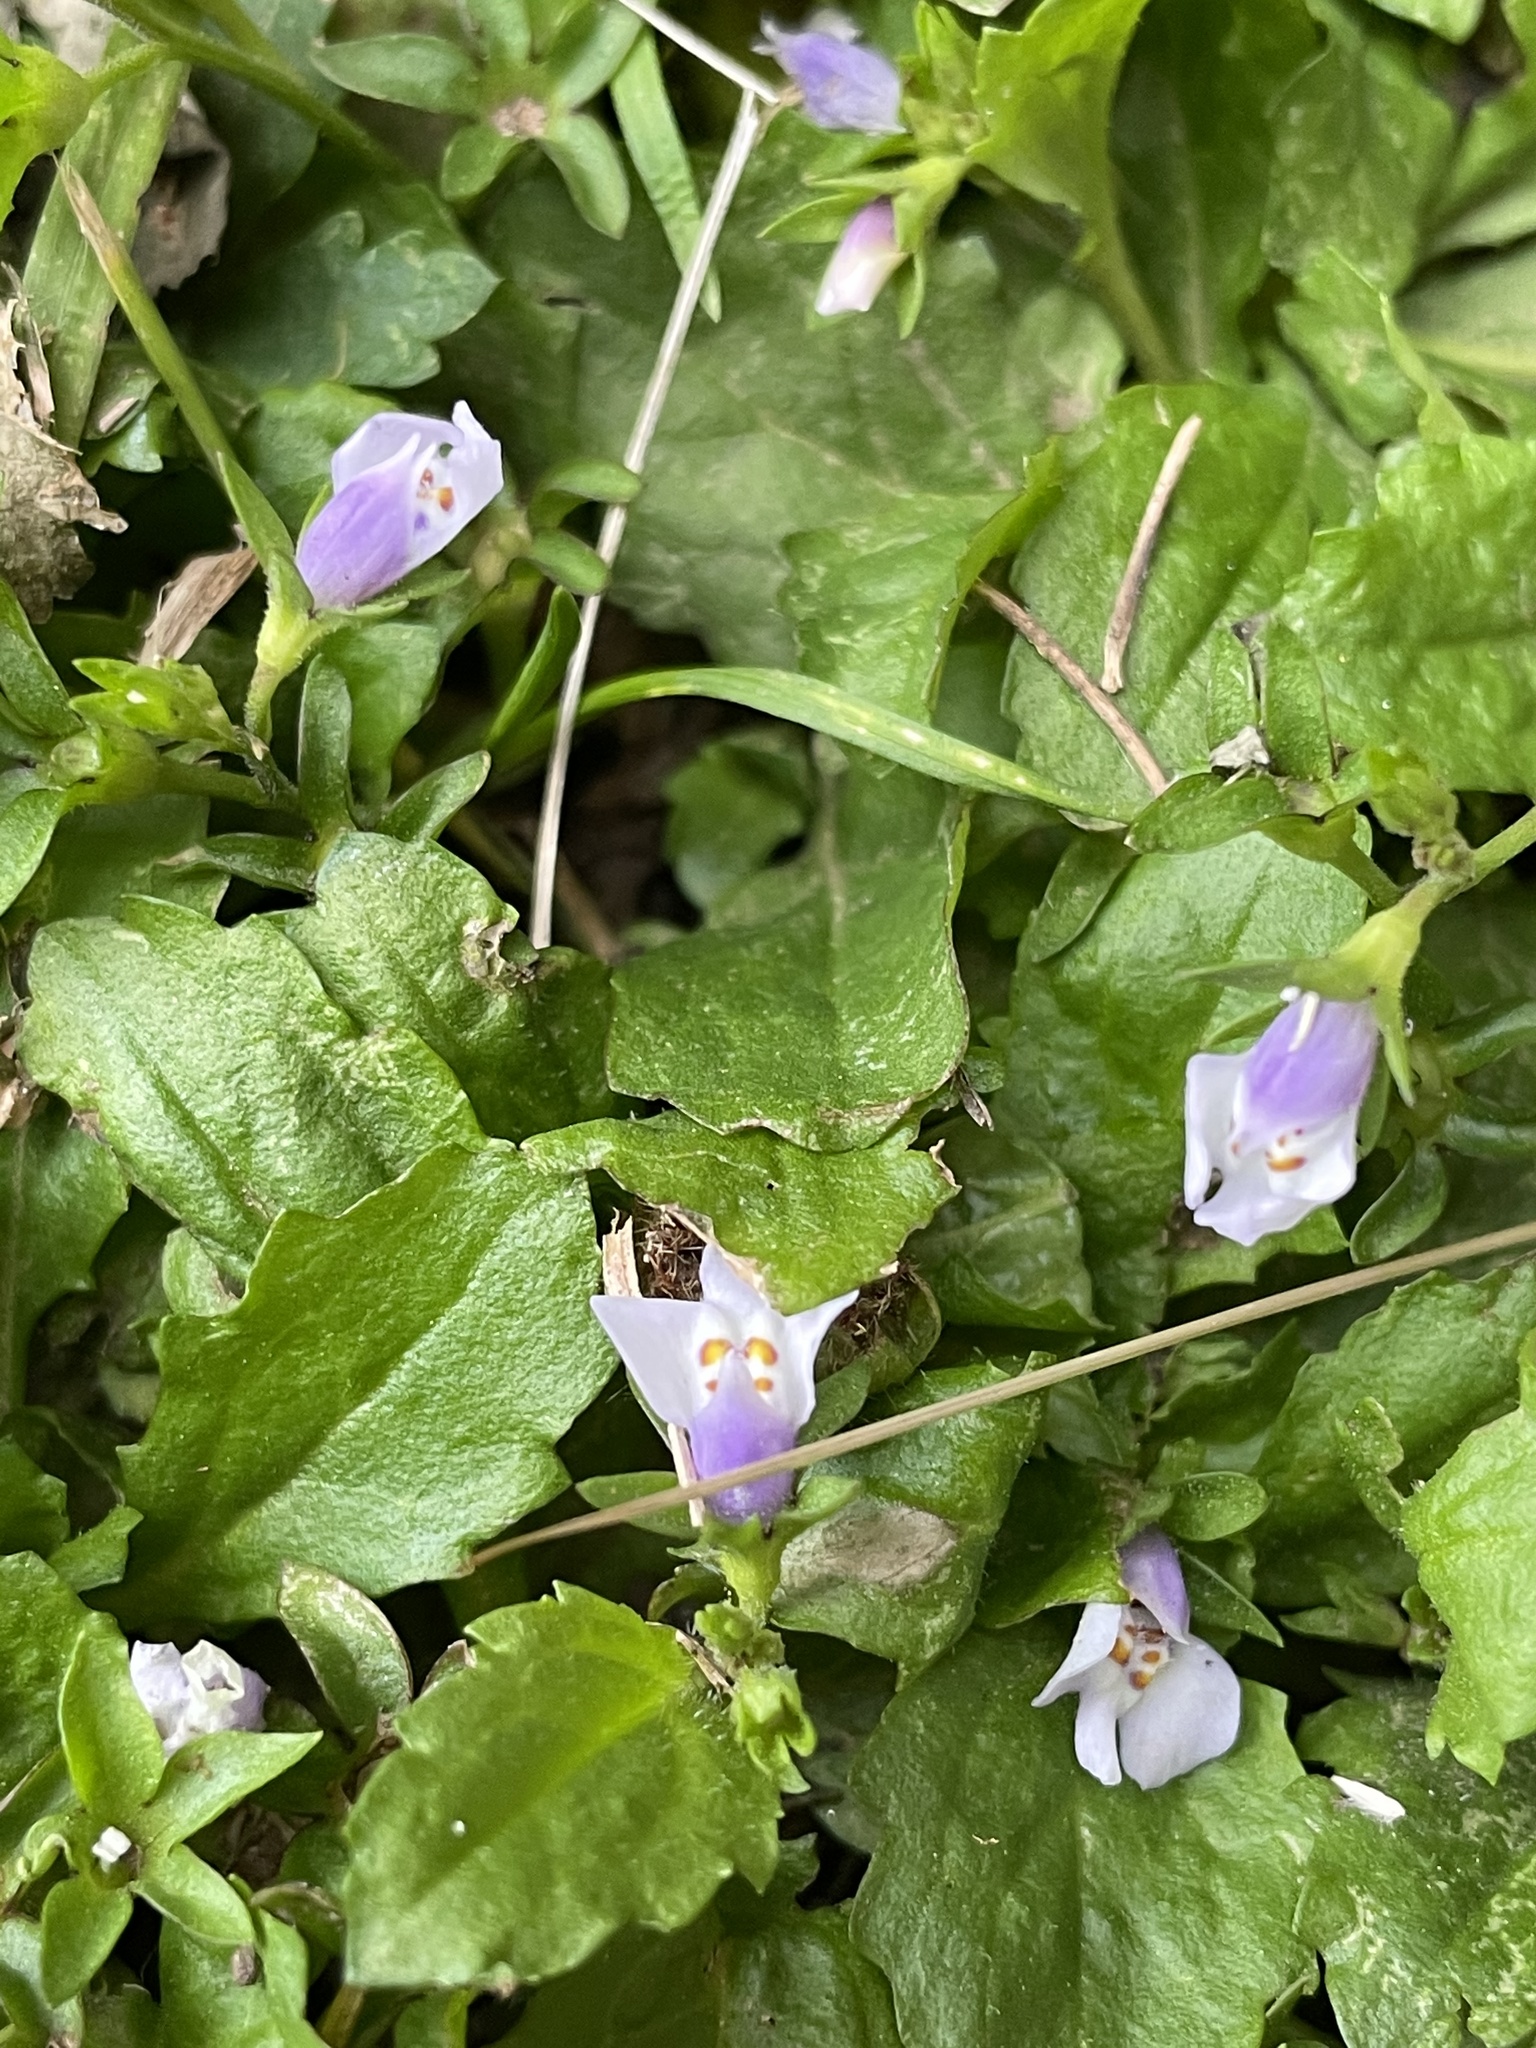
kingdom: Plantae
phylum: Tracheophyta
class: Magnoliopsida
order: Lamiales
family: Mazaceae
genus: Mazus
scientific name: Mazus pumilus
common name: Japanese mazus
